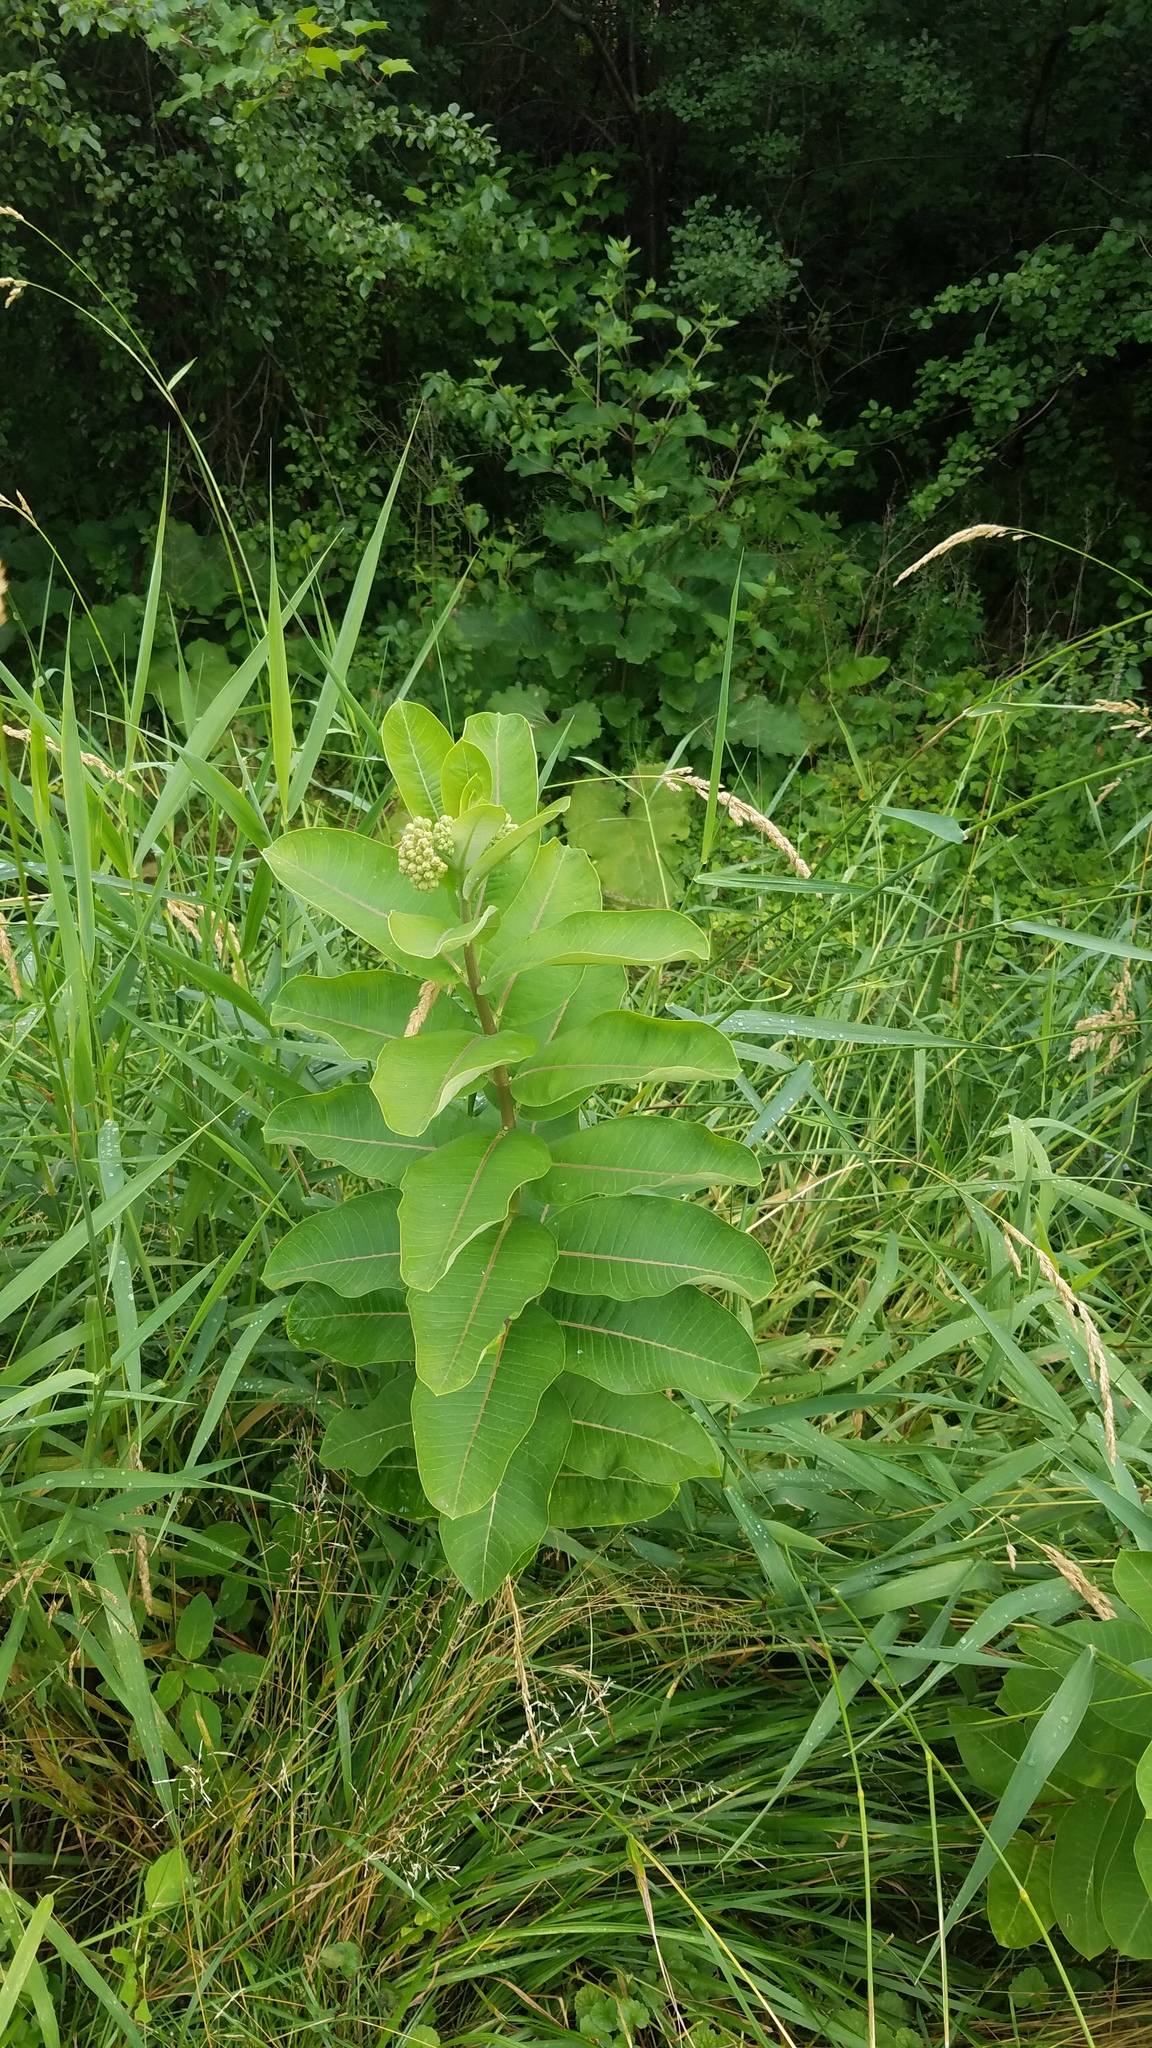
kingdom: Plantae
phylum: Tracheophyta
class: Magnoliopsida
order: Gentianales
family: Apocynaceae
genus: Asclepias
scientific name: Asclepias syriaca
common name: Common milkweed
